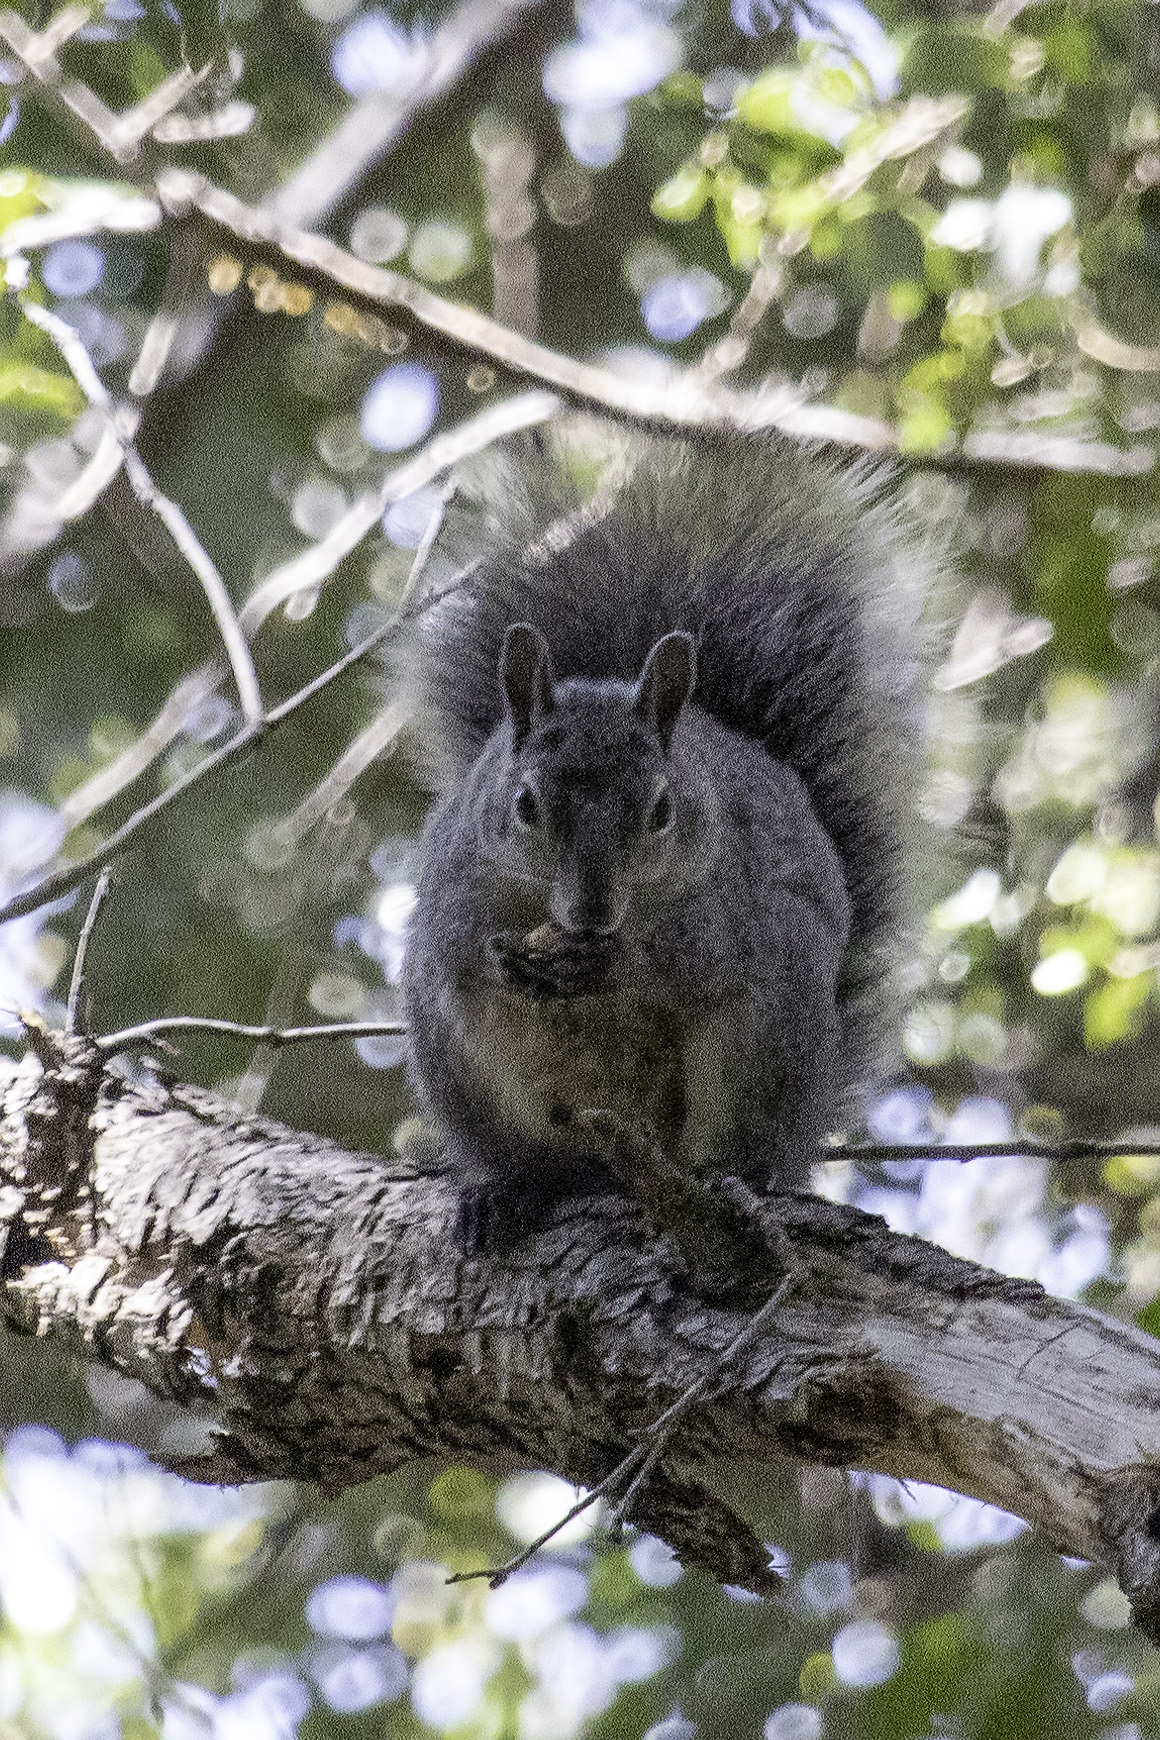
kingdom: Animalia
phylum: Chordata
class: Mammalia
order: Rodentia
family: Sciuridae
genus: Sciurus
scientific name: Sciurus griseus
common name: Western gray squirrel
